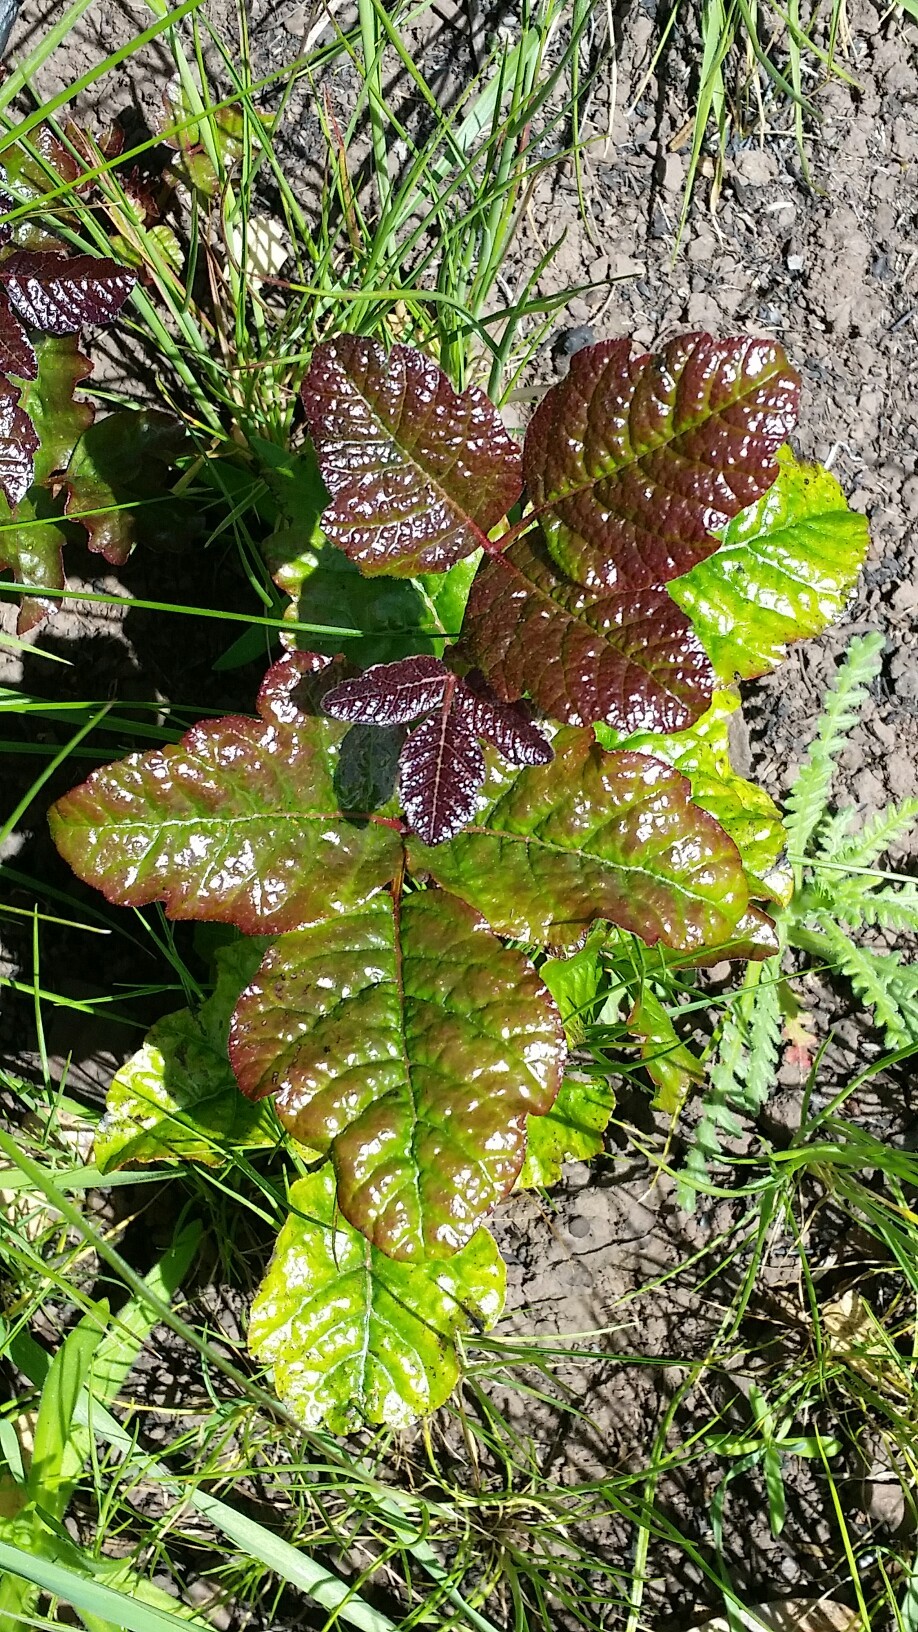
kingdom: Plantae
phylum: Tracheophyta
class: Magnoliopsida
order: Sapindales
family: Anacardiaceae
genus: Toxicodendron
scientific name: Toxicodendron diversilobum
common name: Pacific poison-oak
